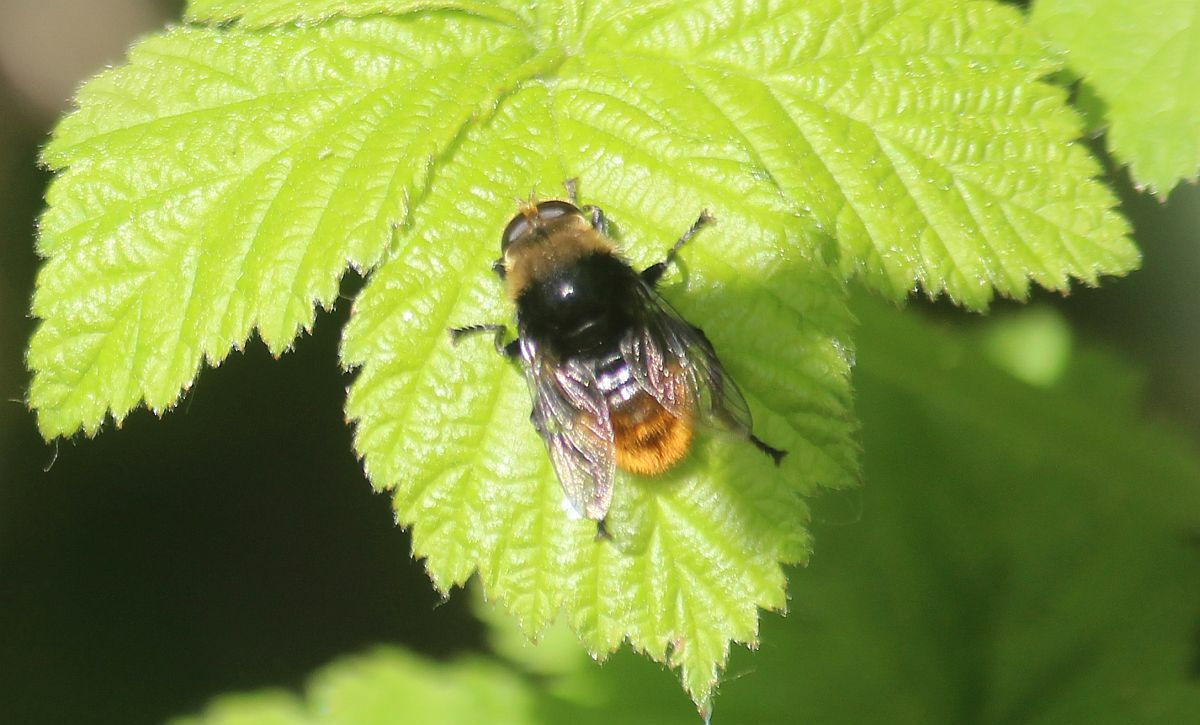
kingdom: Animalia
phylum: Arthropoda
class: Insecta
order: Diptera
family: Syrphidae
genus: Merodon
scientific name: Merodon equestris
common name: Greater bulb-fly
